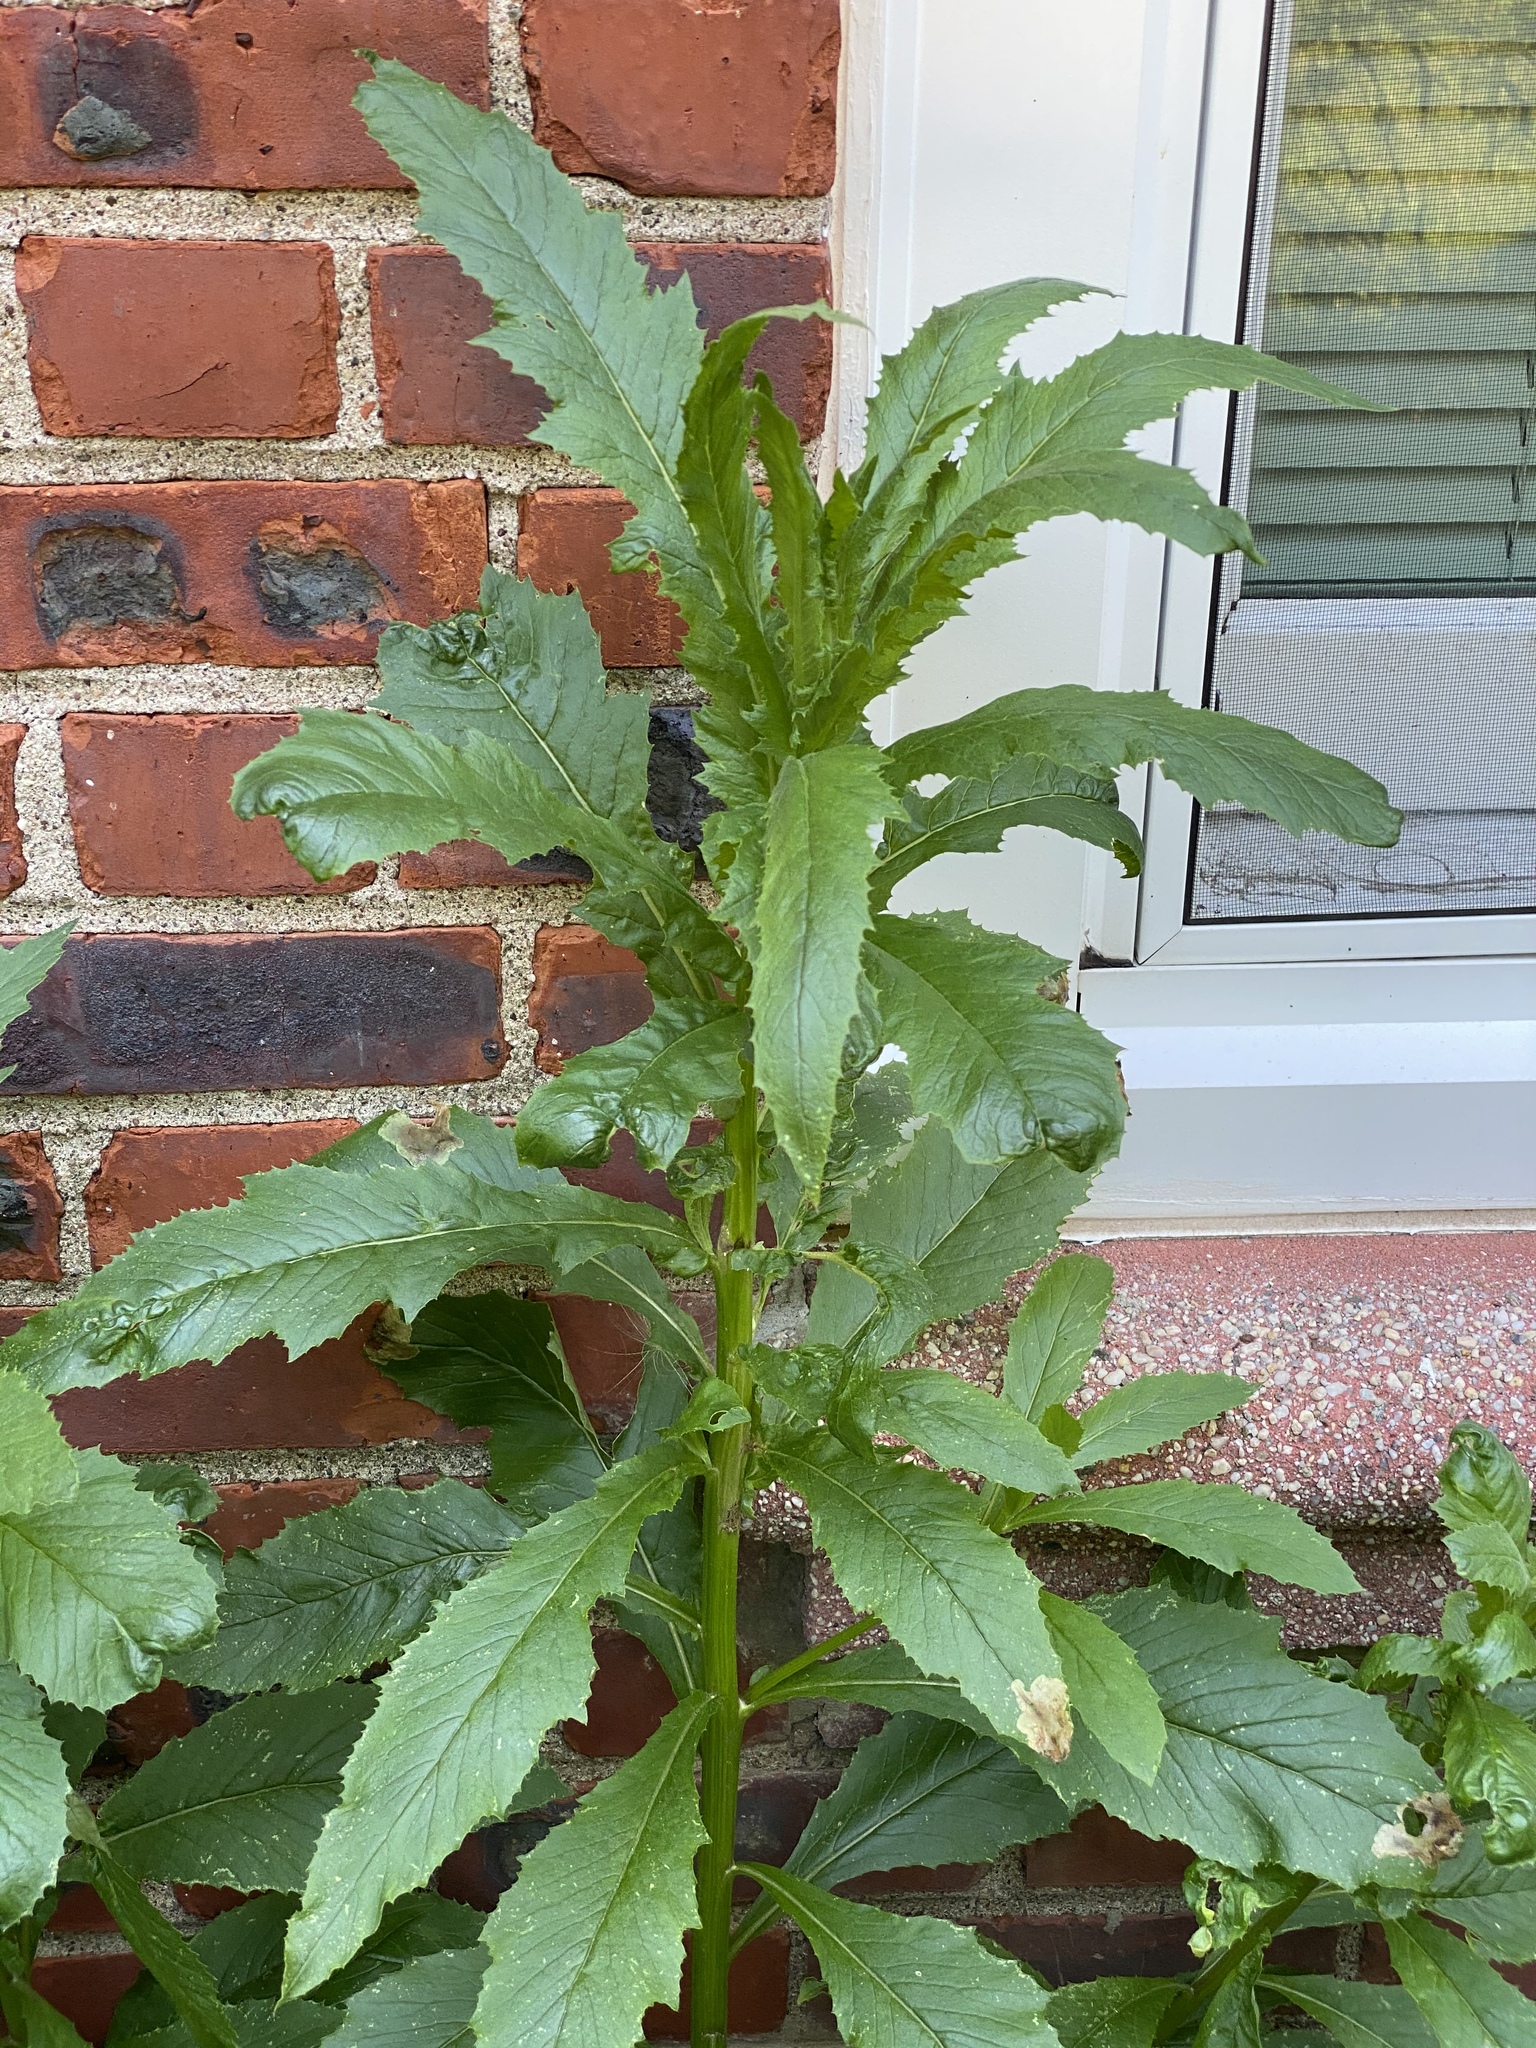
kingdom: Plantae
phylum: Tracheophyta
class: Magnoliopsida
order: Asterales
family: Asteraceae
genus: Erechtites
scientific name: Erechtites hieraciifolius
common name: American burnweed
